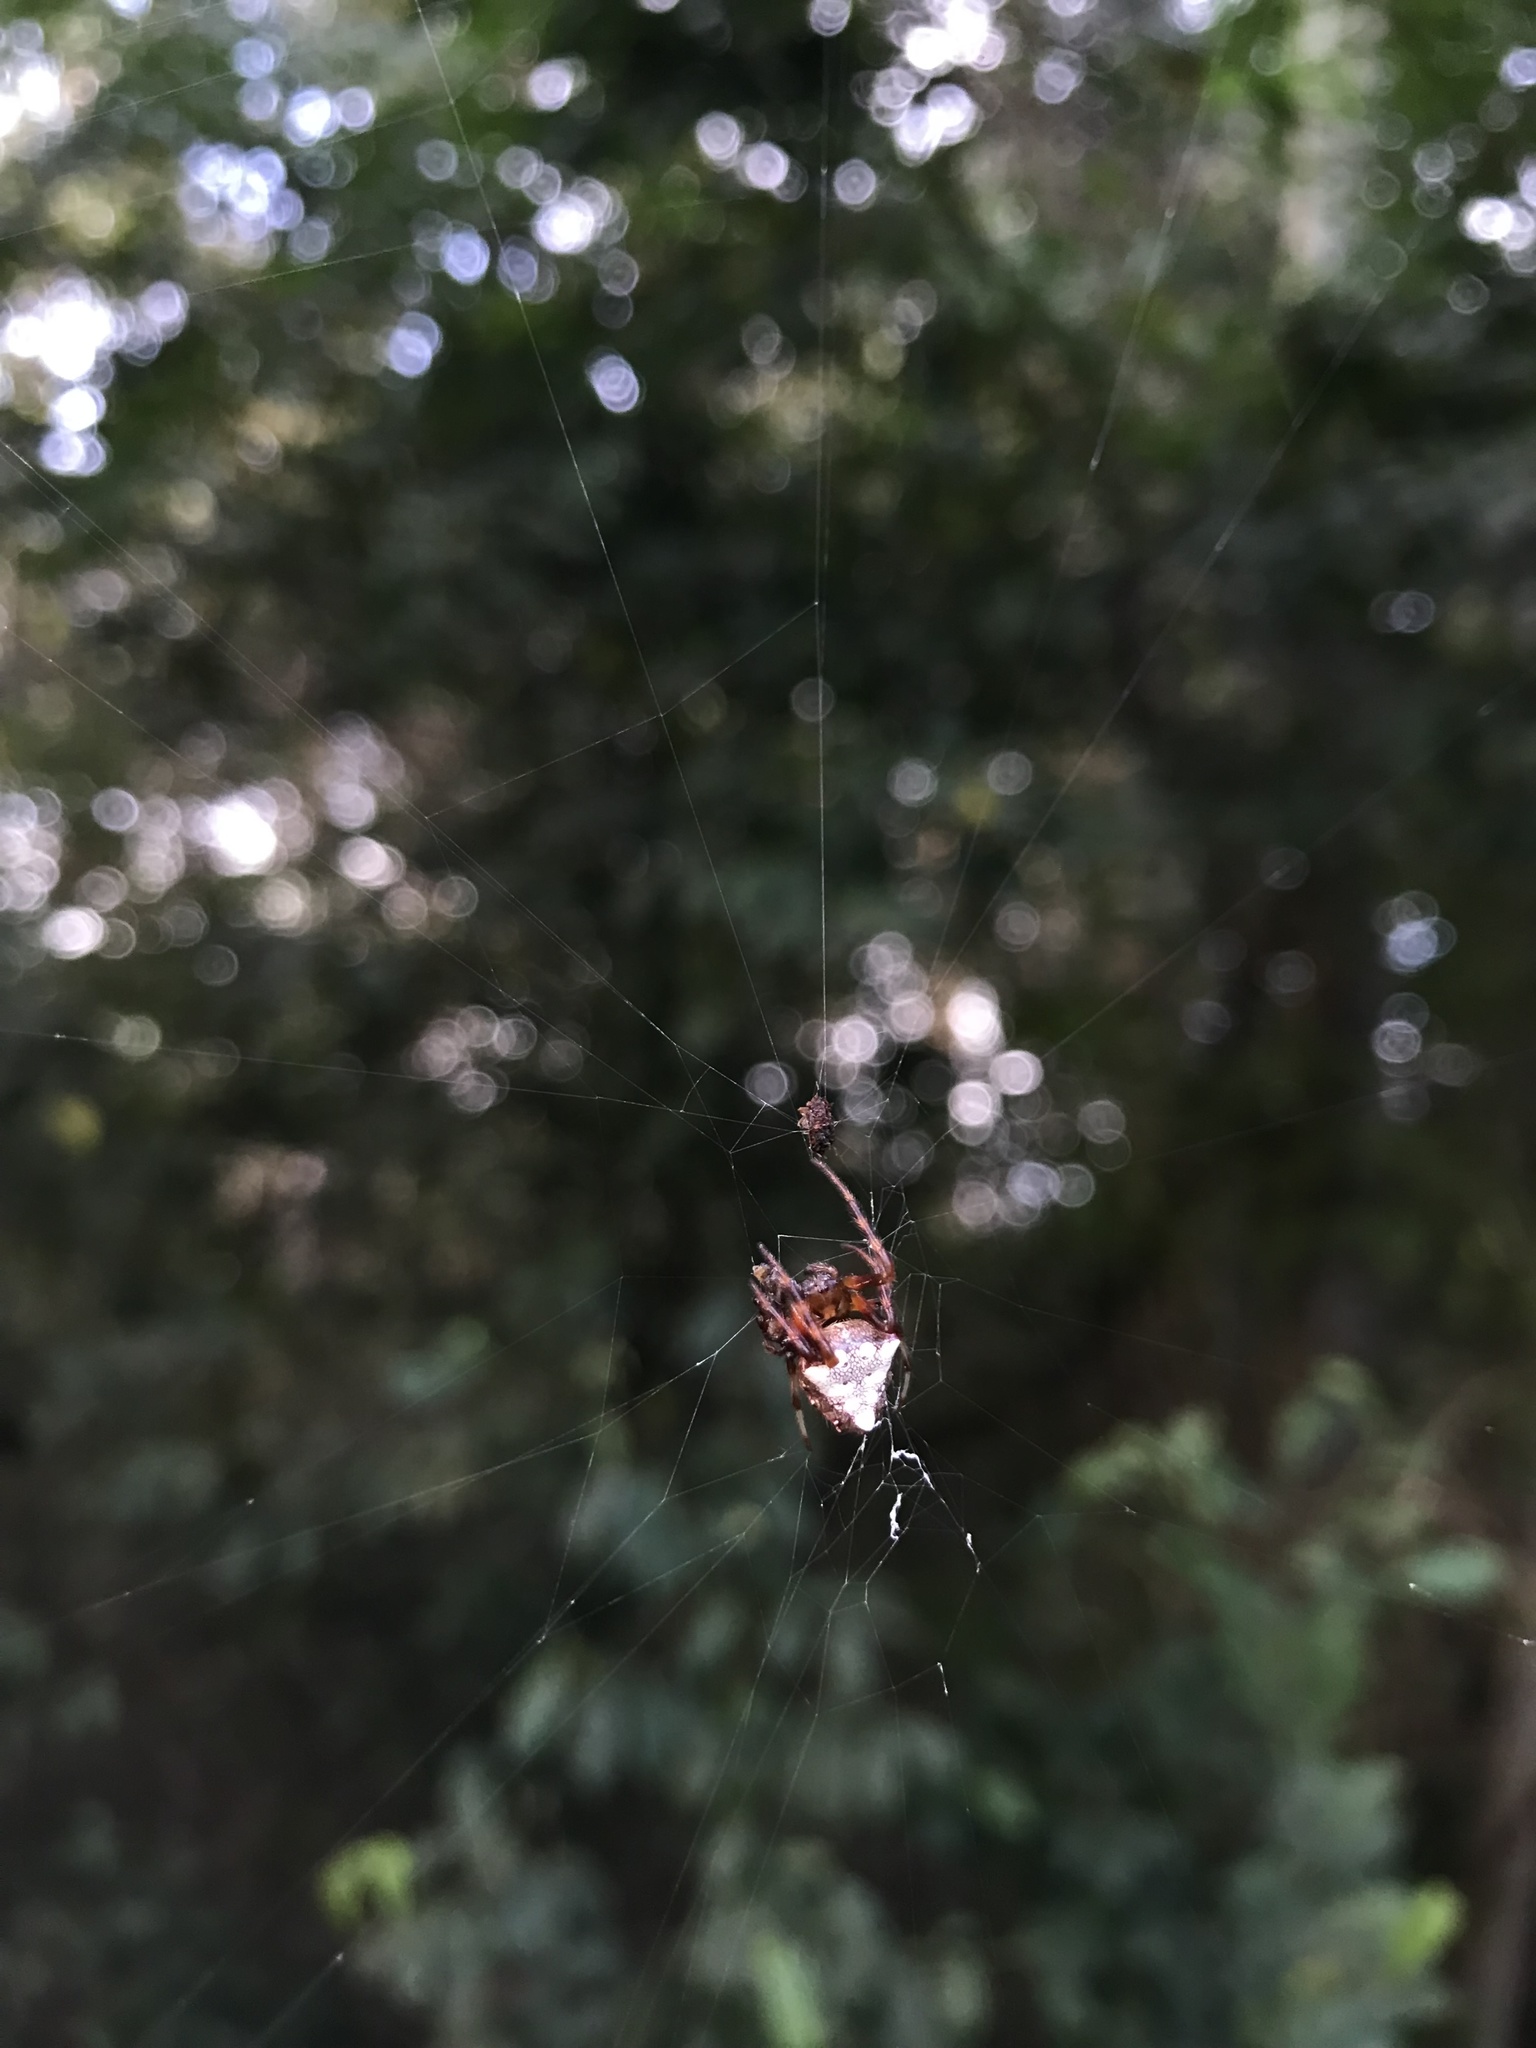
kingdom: Animalia
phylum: Arthropoda
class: Arachnida
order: Araneae
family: Araneidae
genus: Verrucosa
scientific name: Verrucosa arenata
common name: Orb weavers
